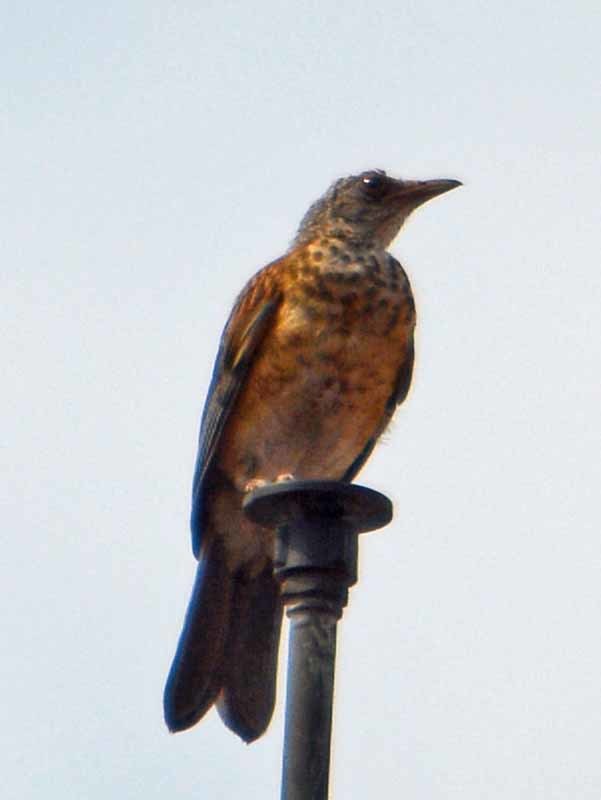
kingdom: Animalia
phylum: Chordata
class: Aves
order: Passeriformes
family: Turdidae
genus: Turdus
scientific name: Turdus rufopalliatus
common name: Rufous-backed robin
